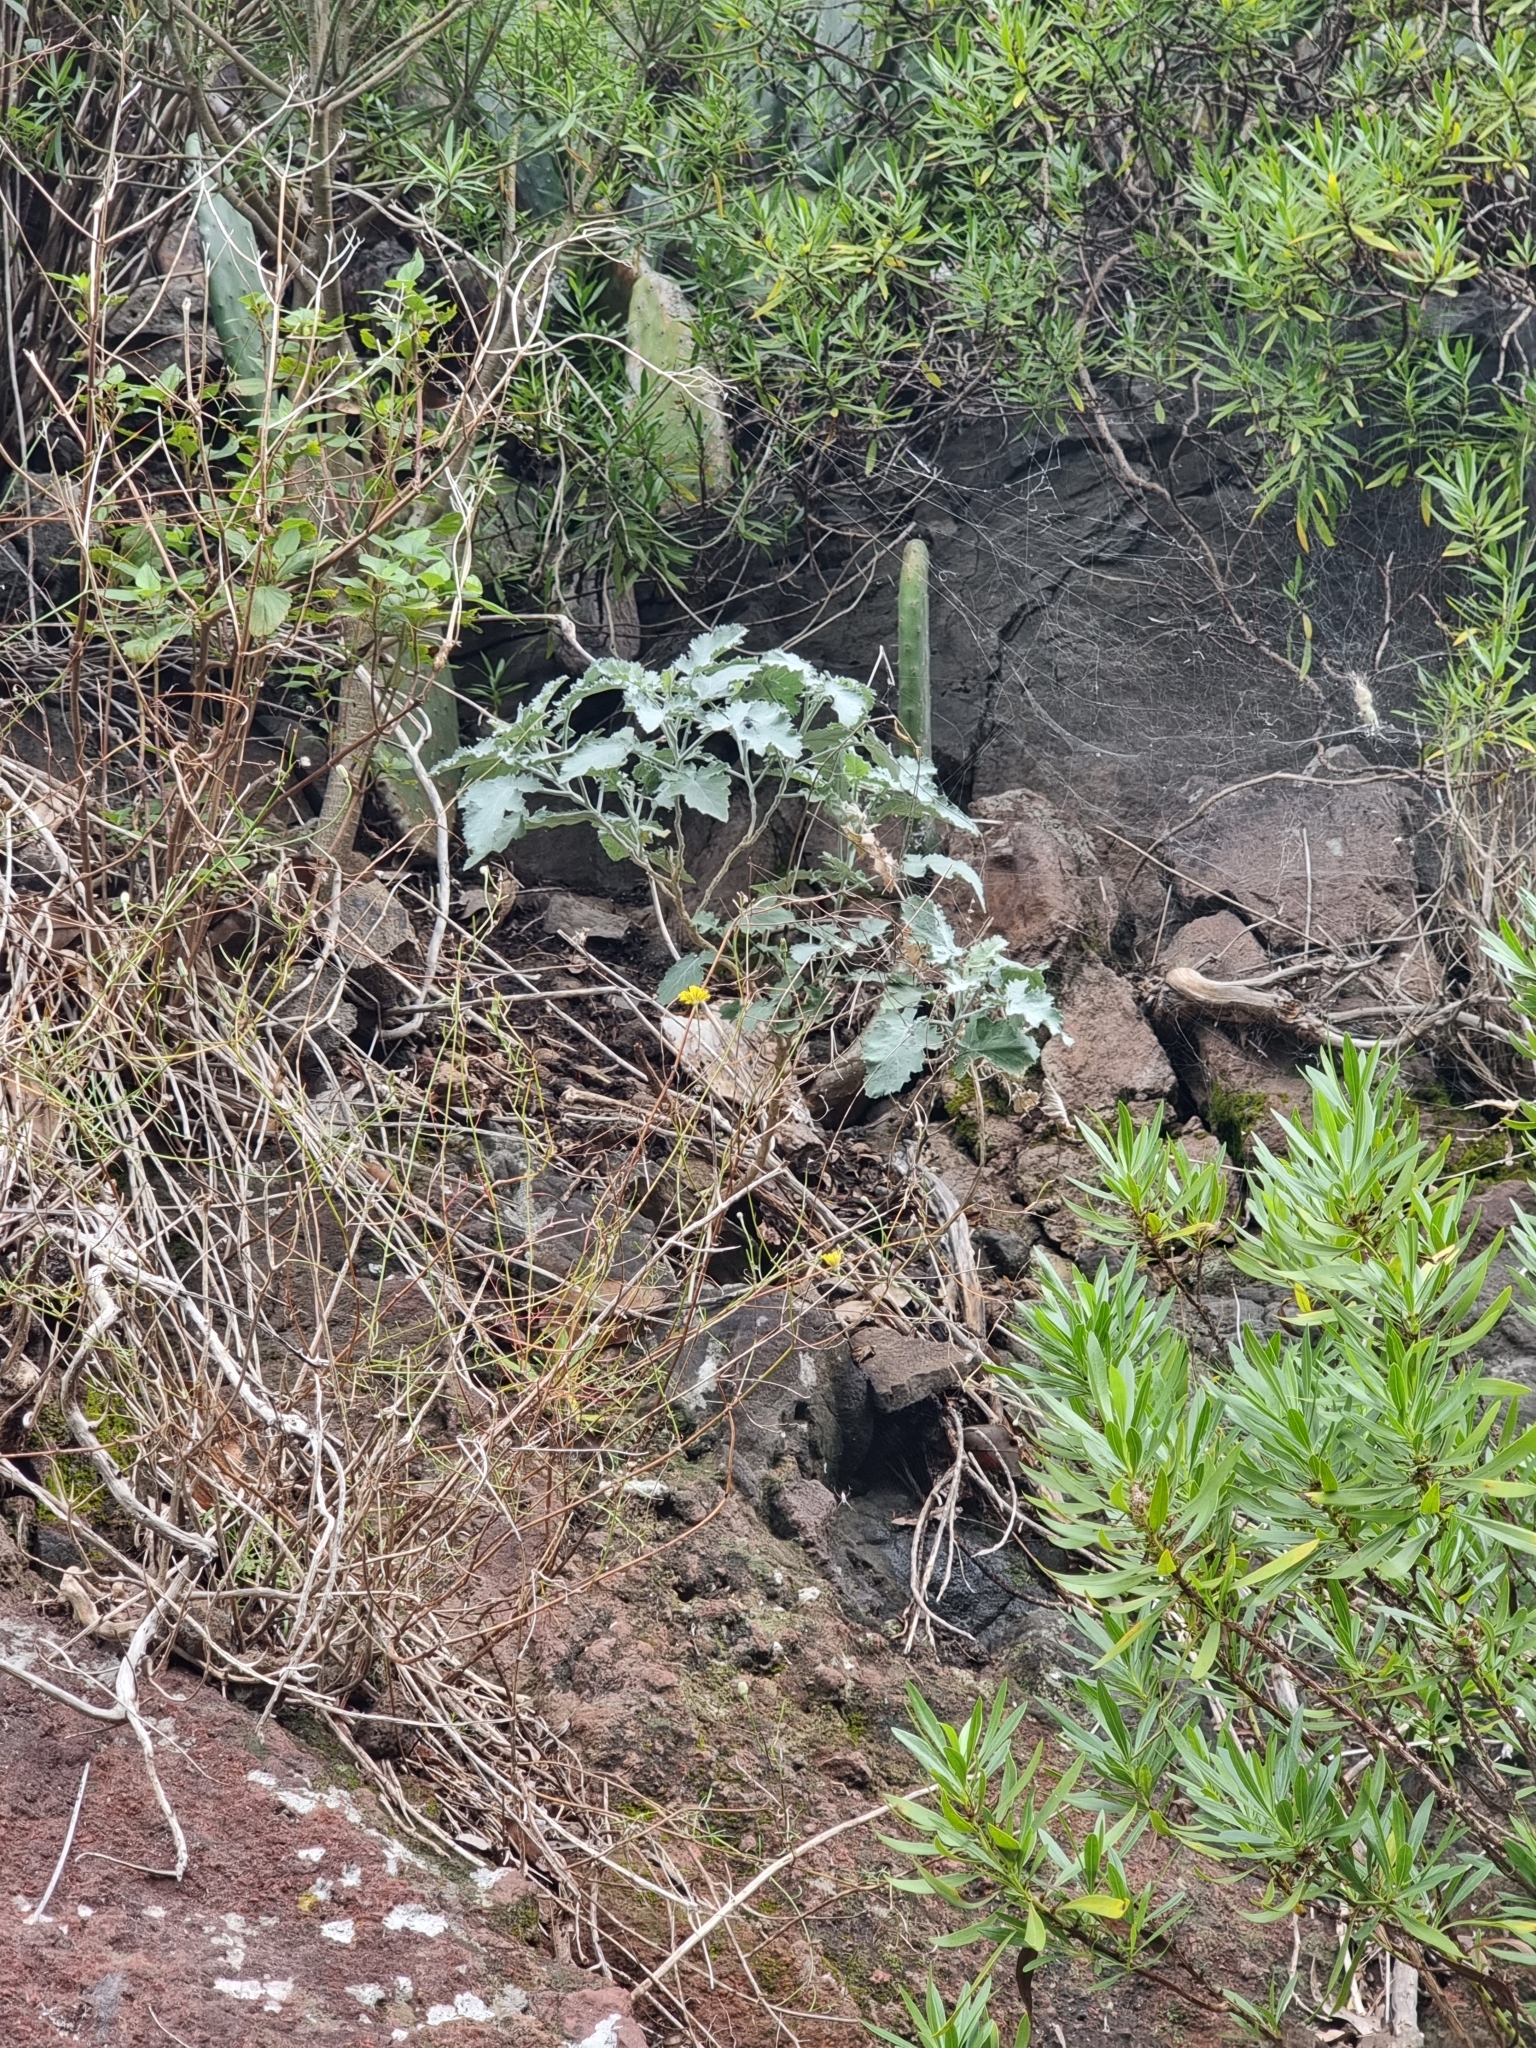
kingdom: Plantae
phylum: Tracheophyta
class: Magnoliopsida
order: Brassicales
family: Brassicaceae
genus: Crambe
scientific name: Crambe fruticosa
